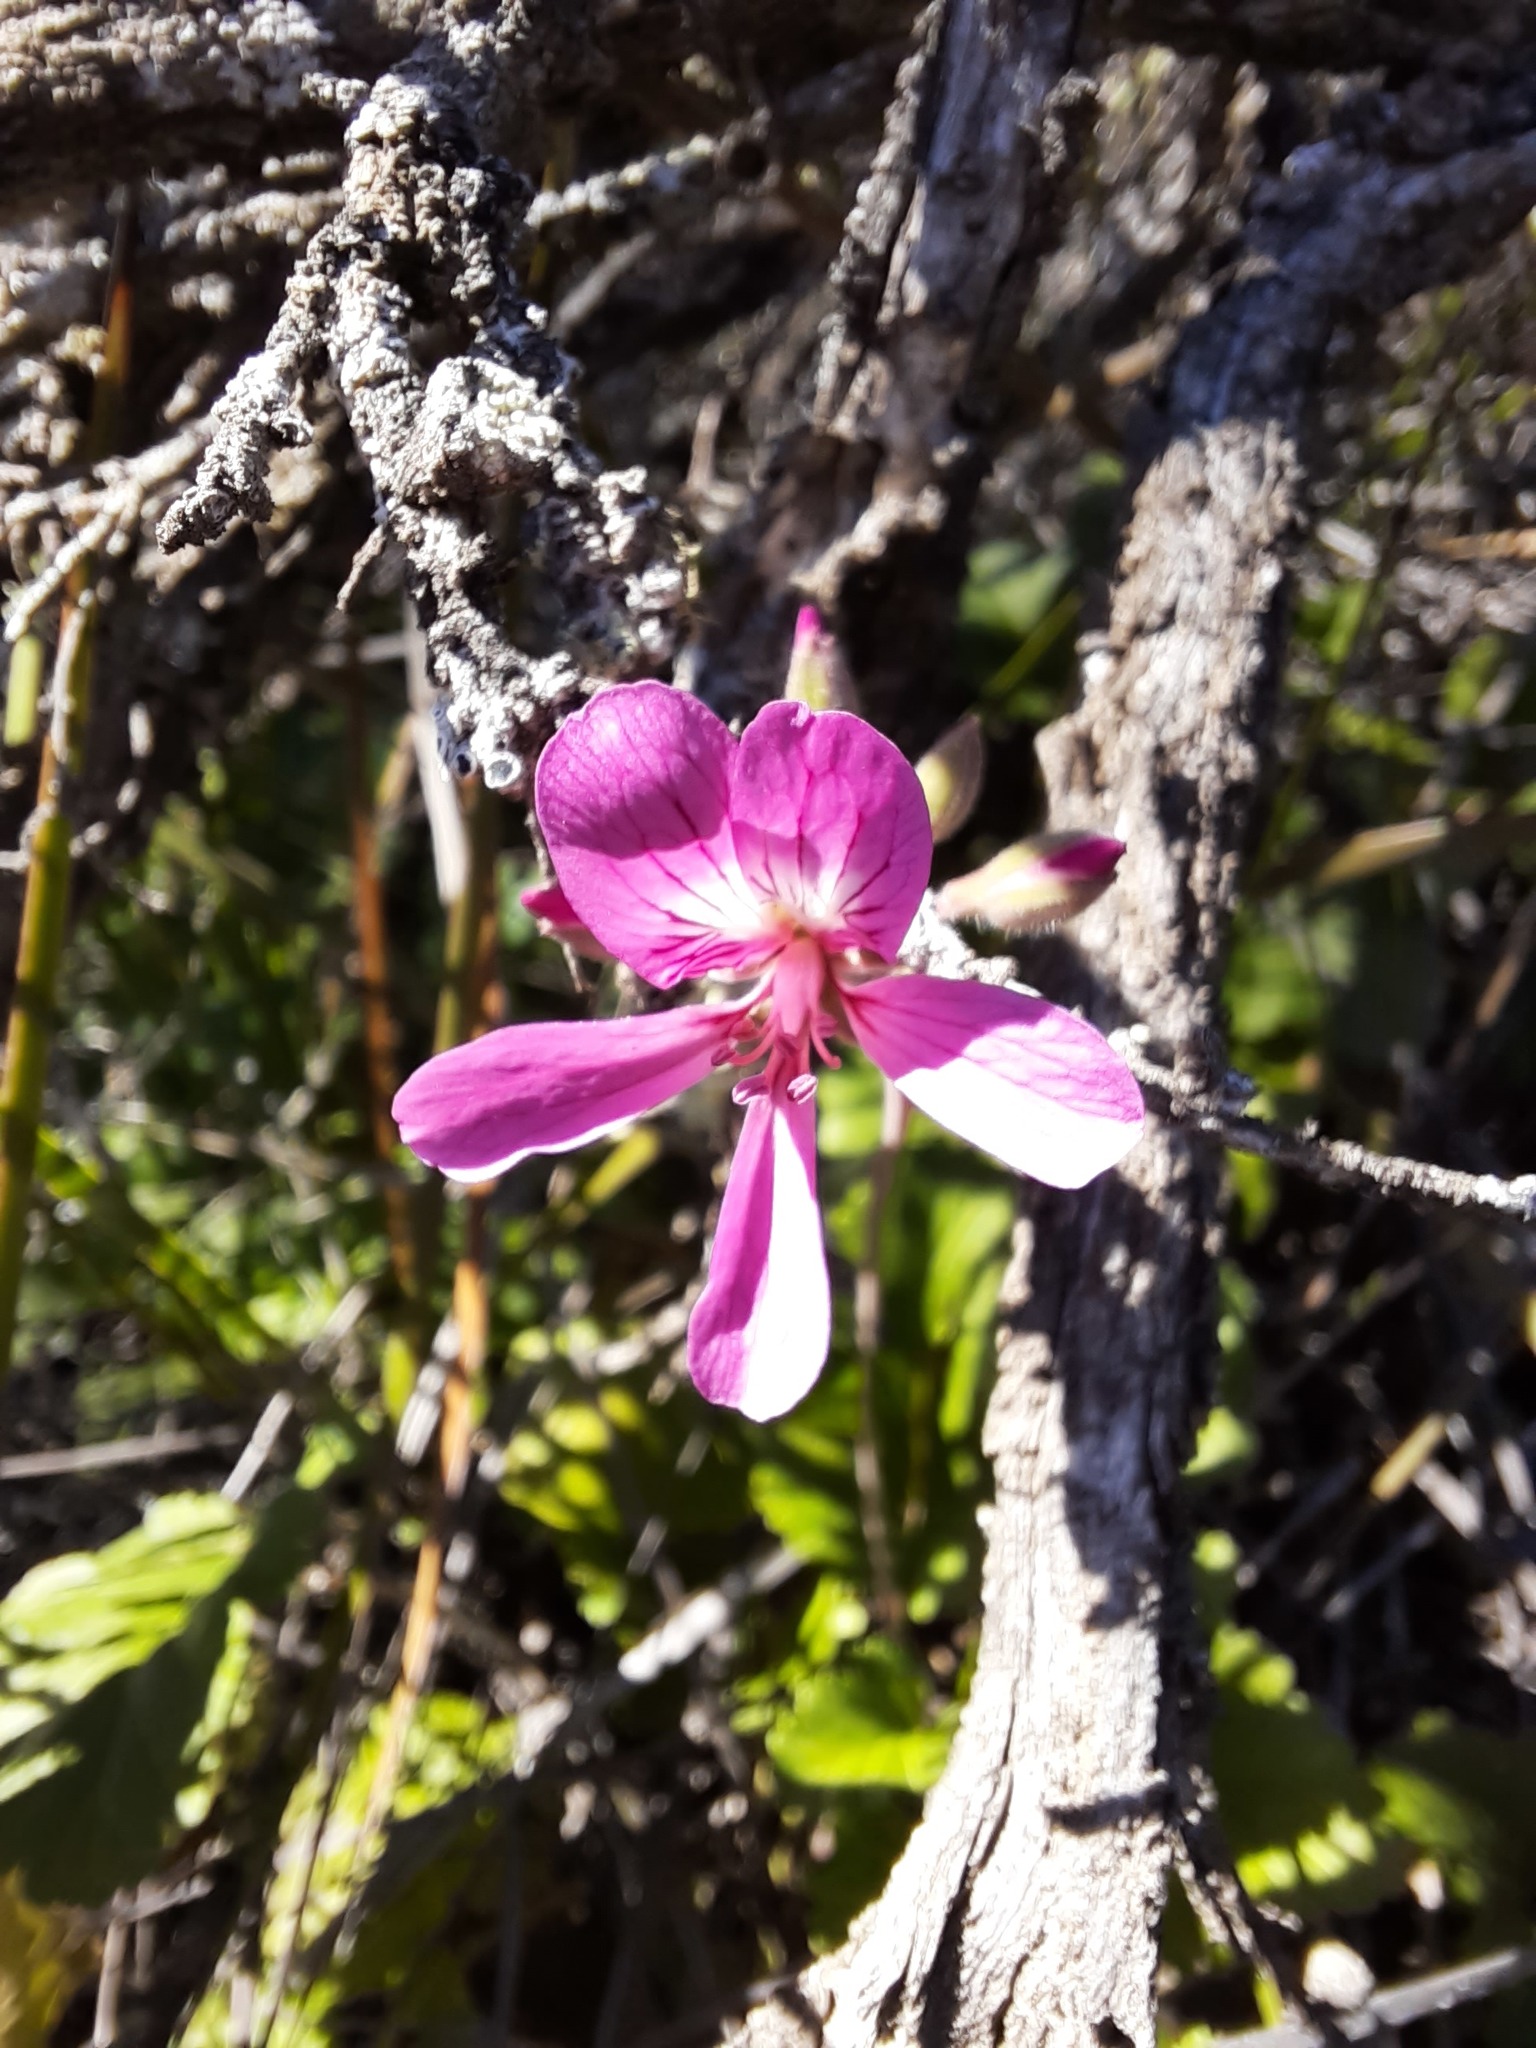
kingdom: Plantae
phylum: Tracheophyta
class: Magnoliopsida
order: Geraniales
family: Geraniaceae
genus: Pelargonium
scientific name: Pelargonium rodneyanum
